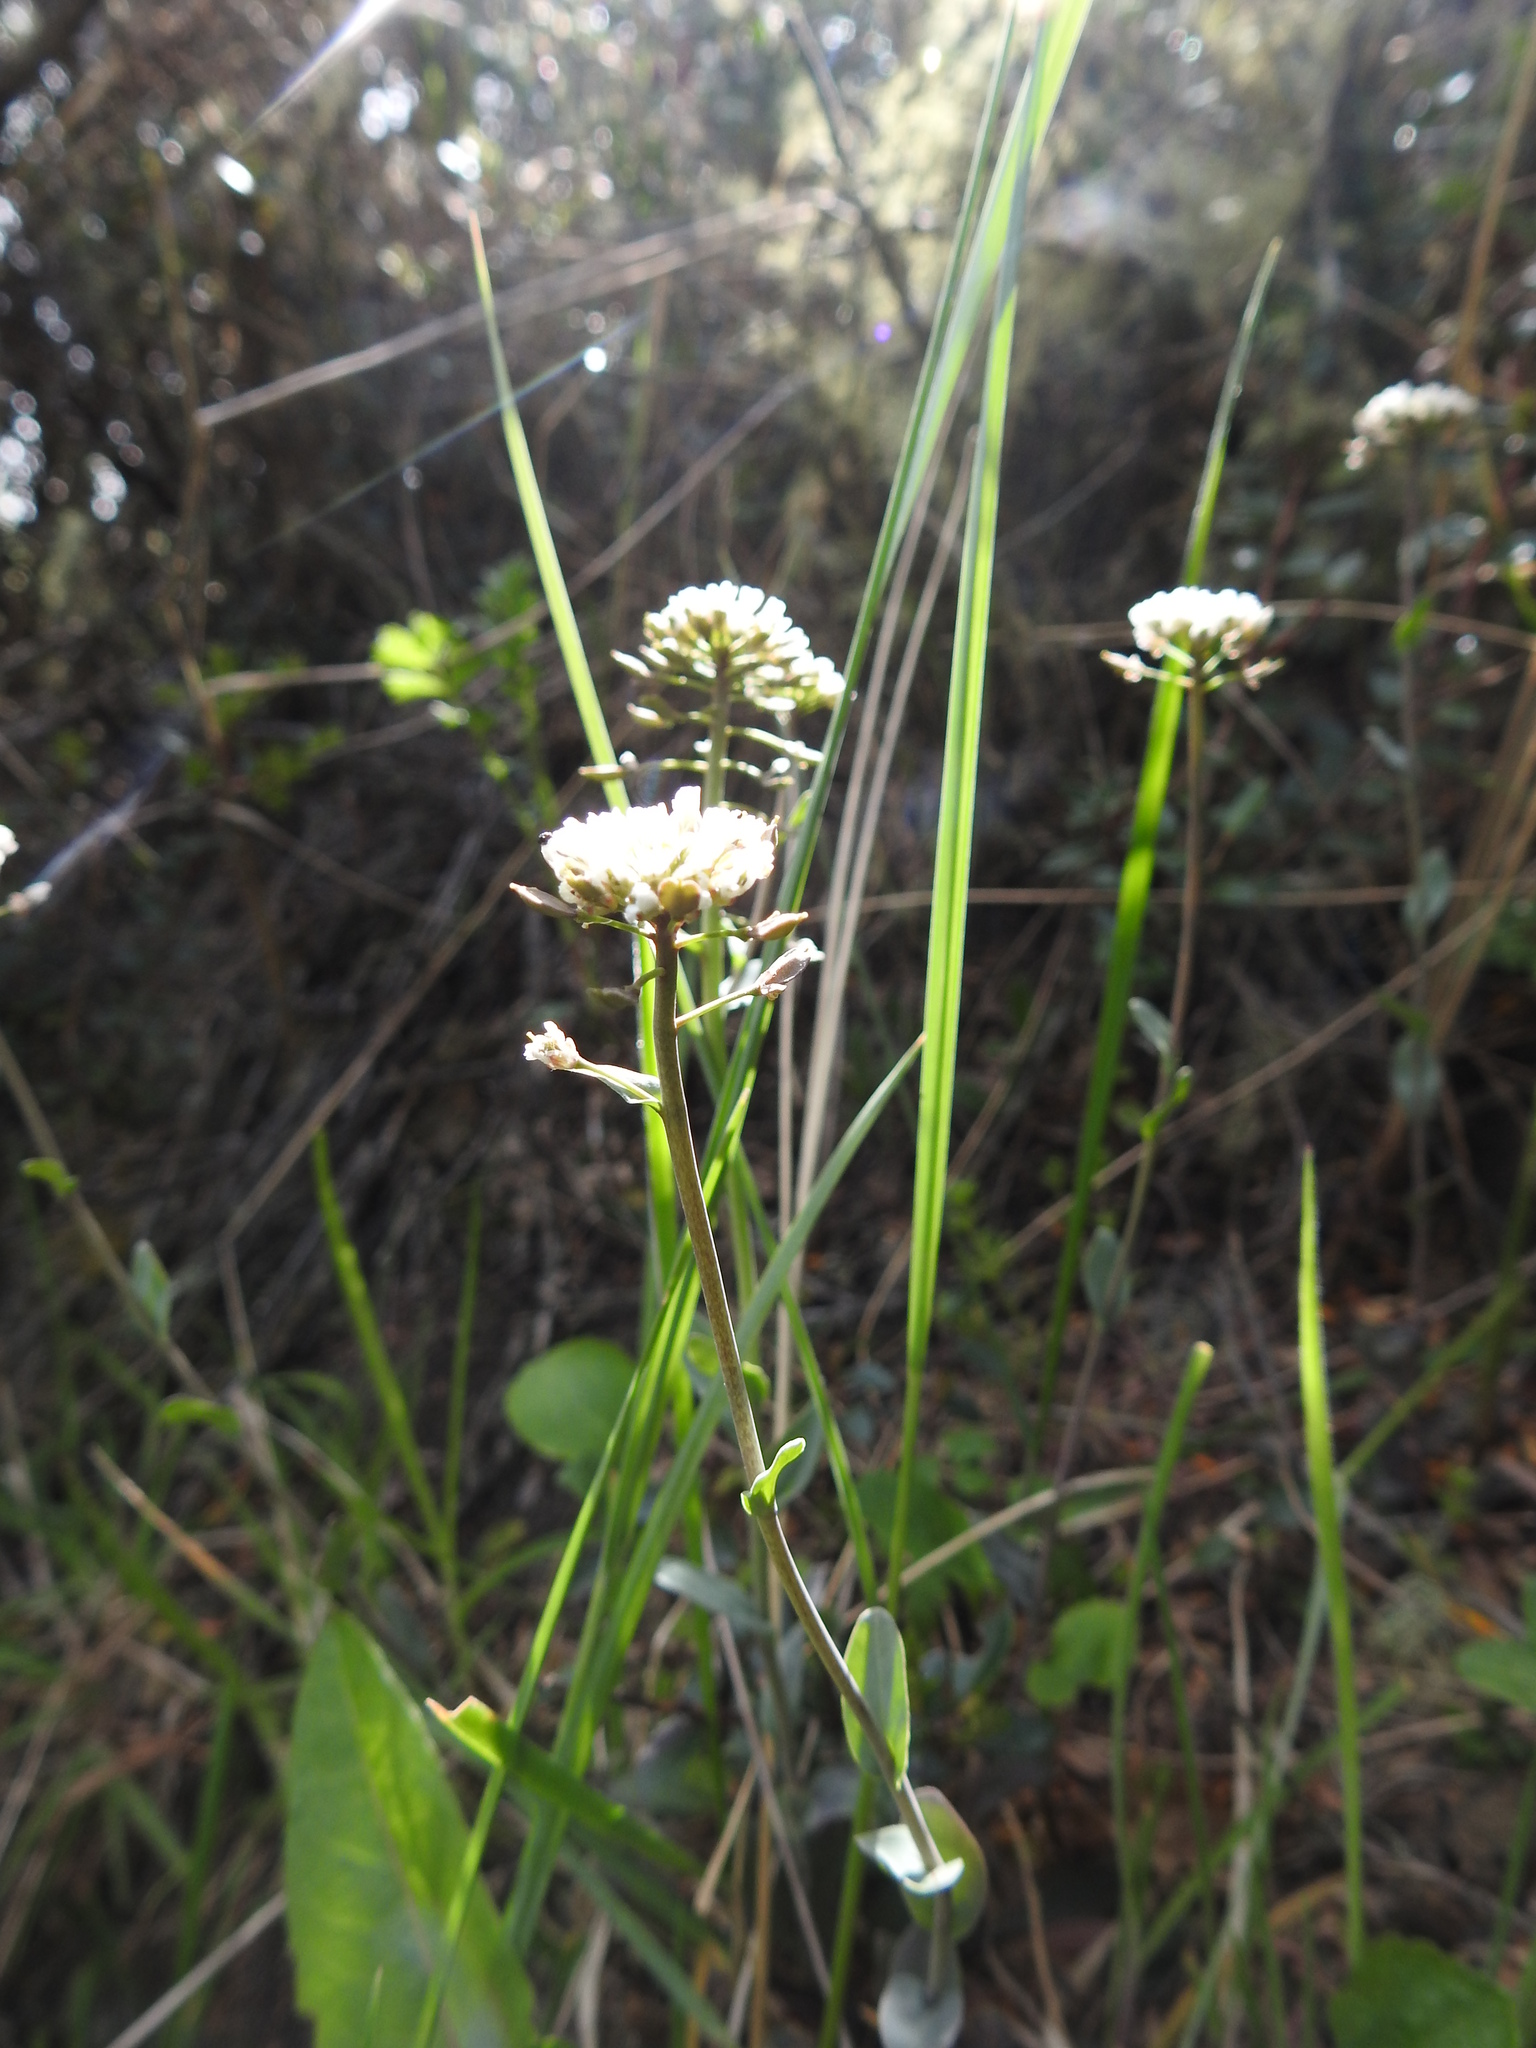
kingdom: Plantae
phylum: Tracheophyta
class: Magnoliopsida
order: Brassicales
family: Brassicaceae
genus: Noccaea
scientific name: Noccaea magellanica
